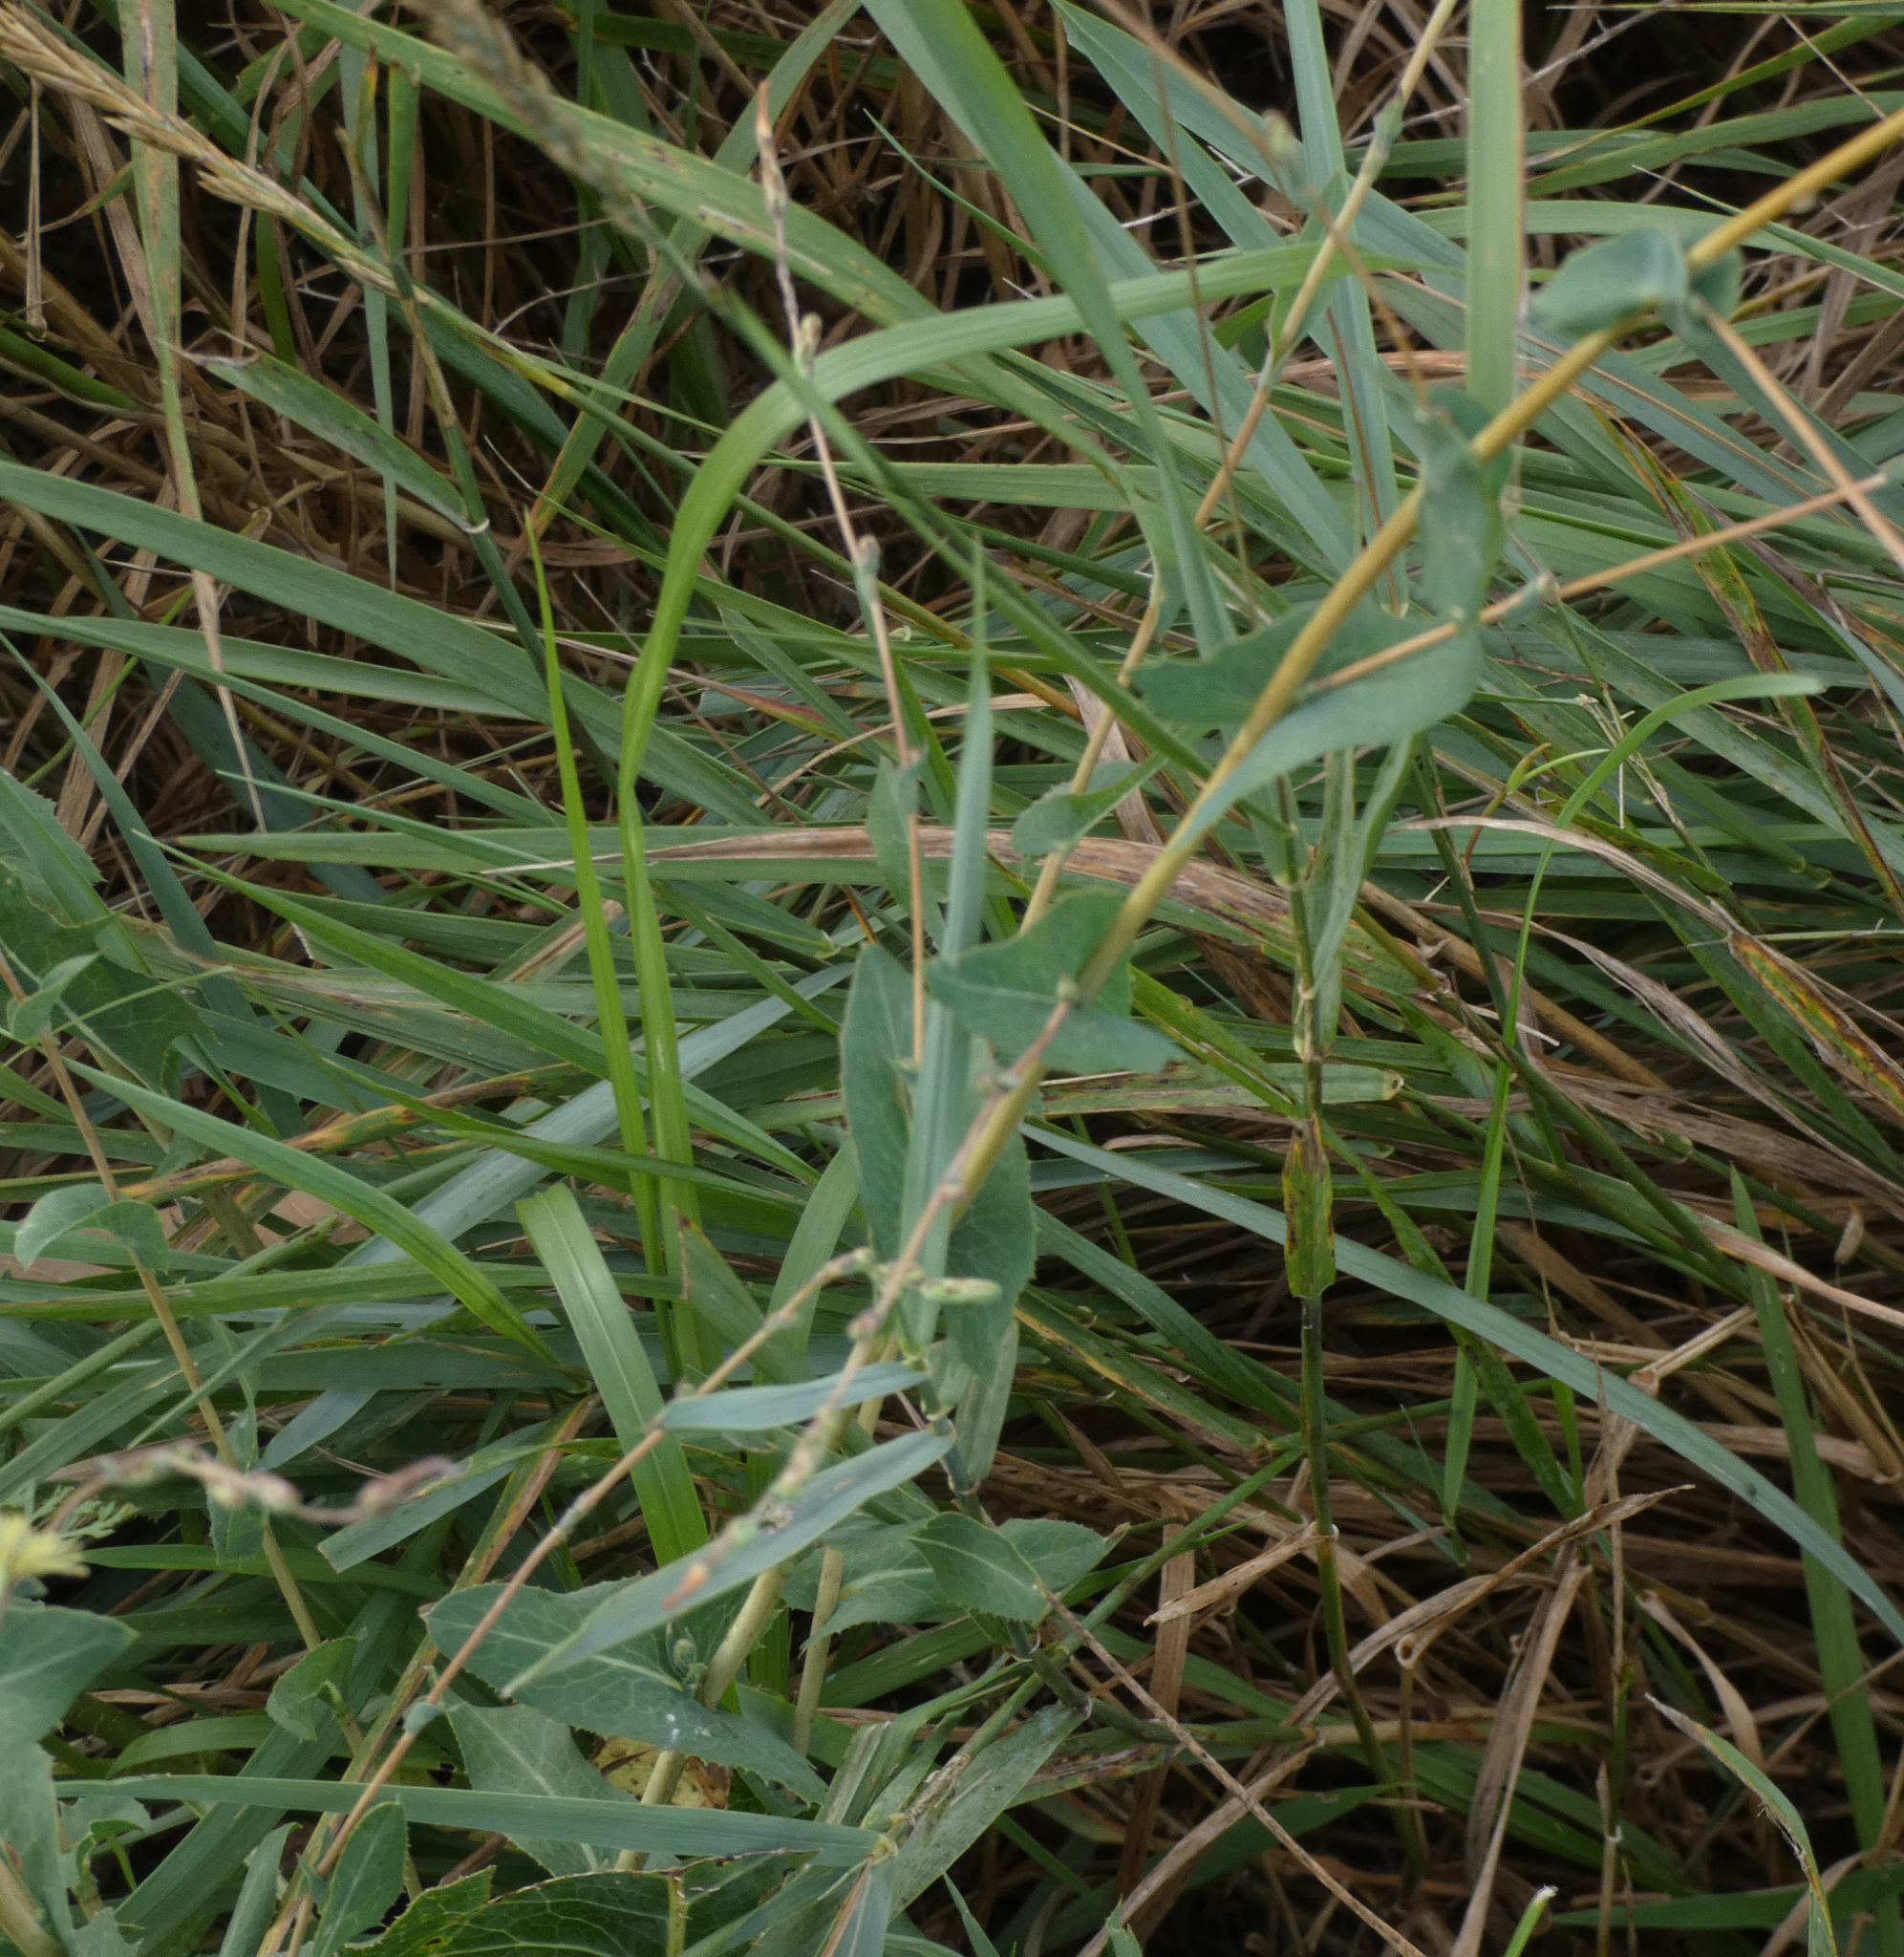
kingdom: Plantae
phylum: Tracheophyta
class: Magnoliopsida
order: Asterales
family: Asteraceae
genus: Lactuca
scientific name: Lactuca serriola
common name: Prickly lettuce
